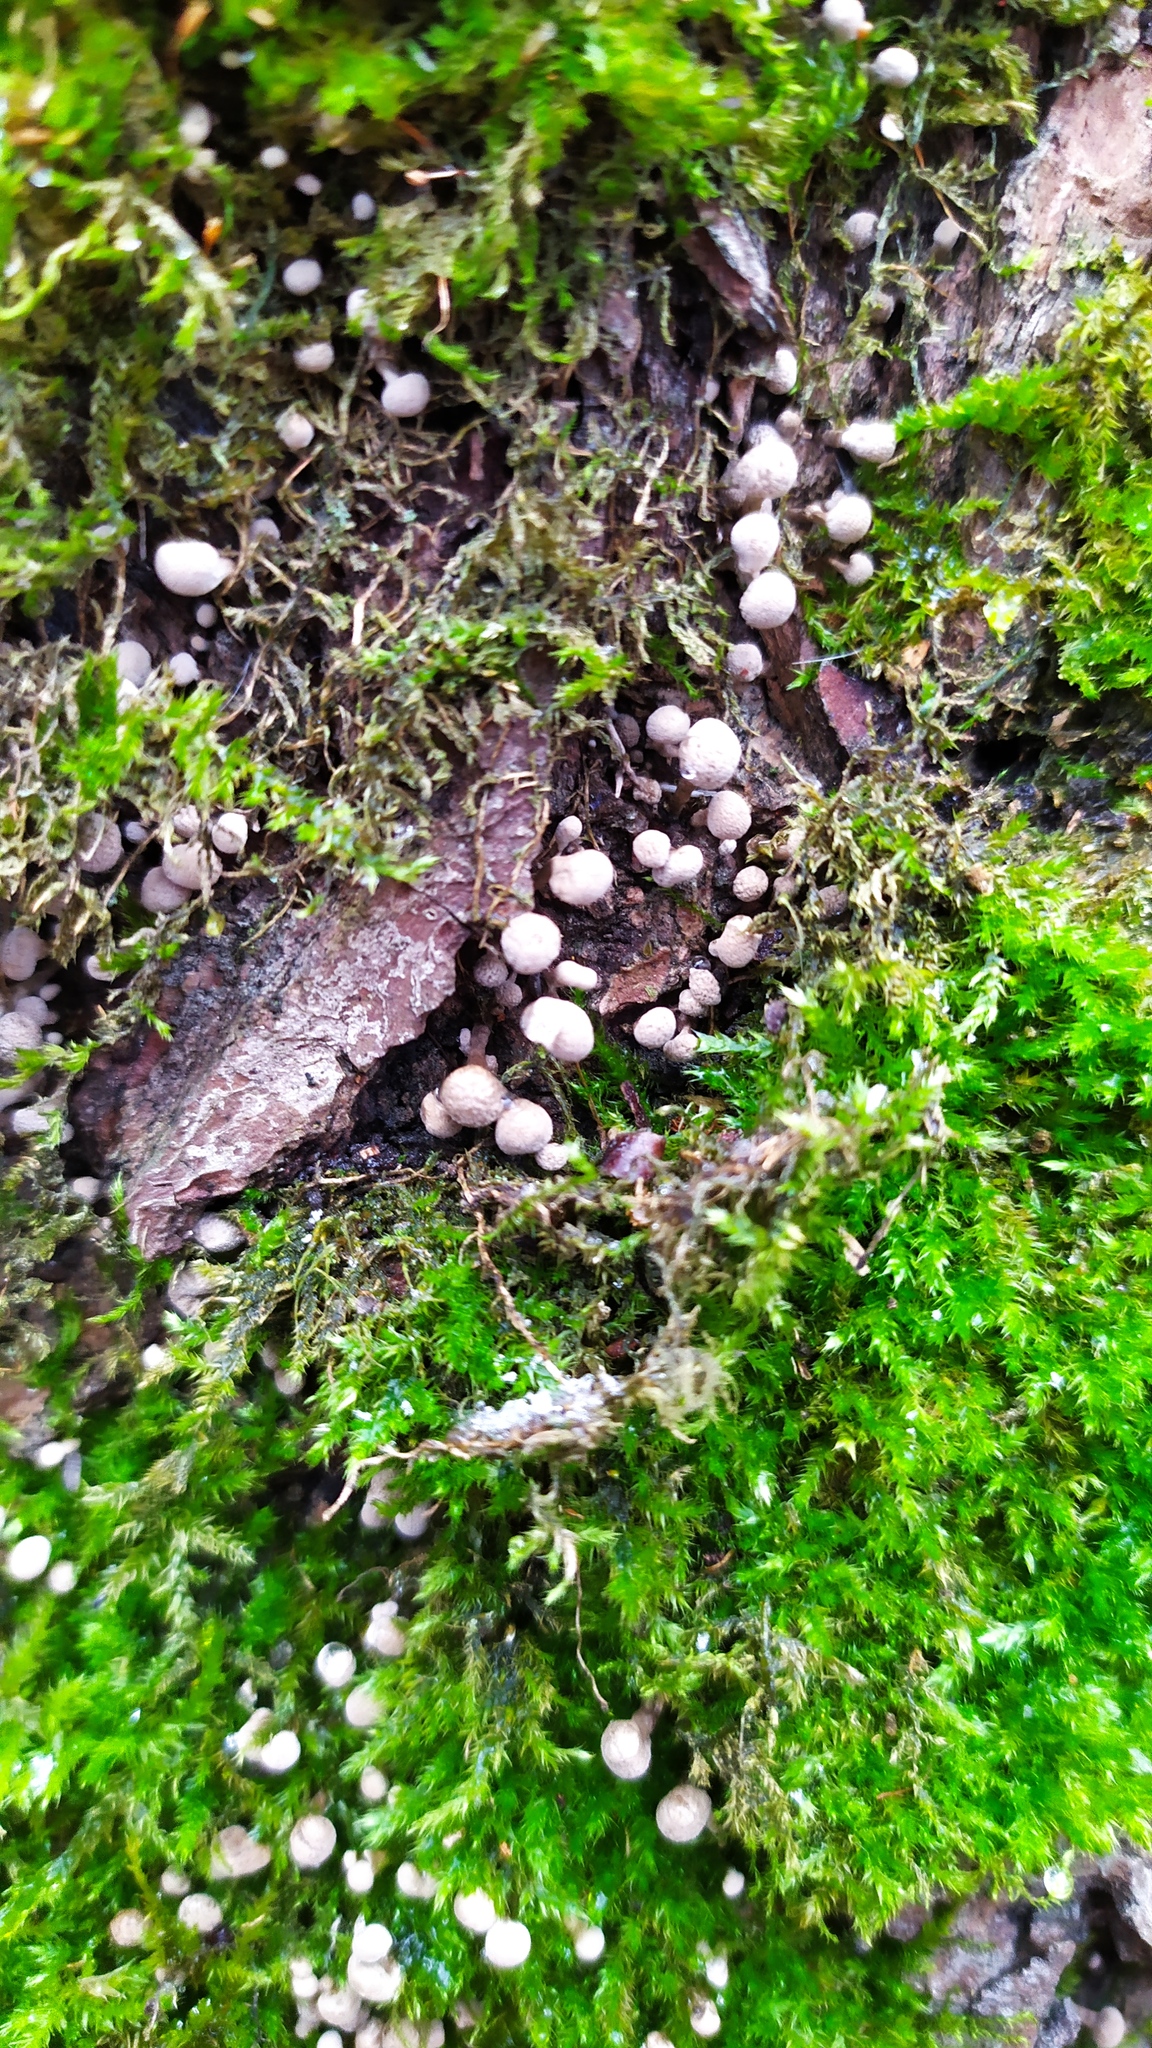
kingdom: Fungi
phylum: Basidiomycota
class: Atractiellomycetes
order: Atractiellales
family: Phleogenaceae
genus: Phleogena
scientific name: Phleogena faginea
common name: Fenugreek stalkball
